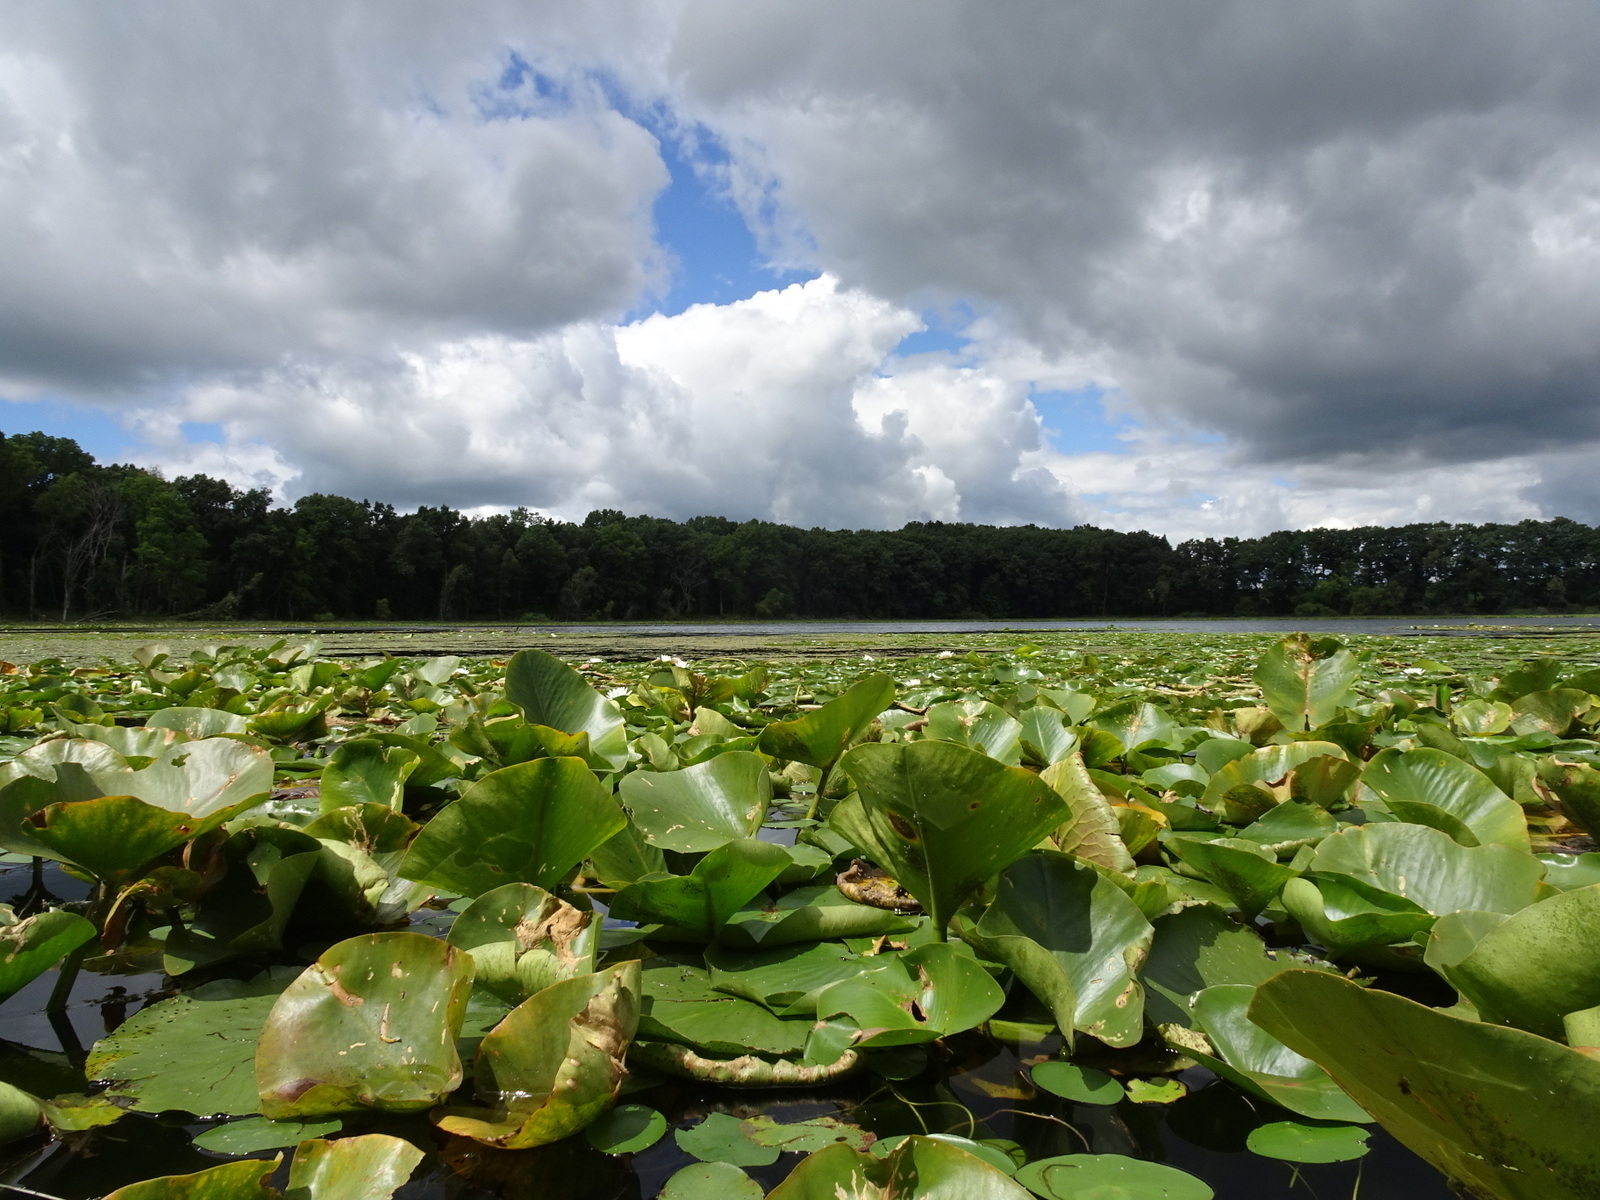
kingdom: Plantae
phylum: Tracheophyta
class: Magnoliopsida
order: Nymphaeales
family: Nymphaeaceae
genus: Nuphar
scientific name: Nuphar advena
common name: Spatter-dock
